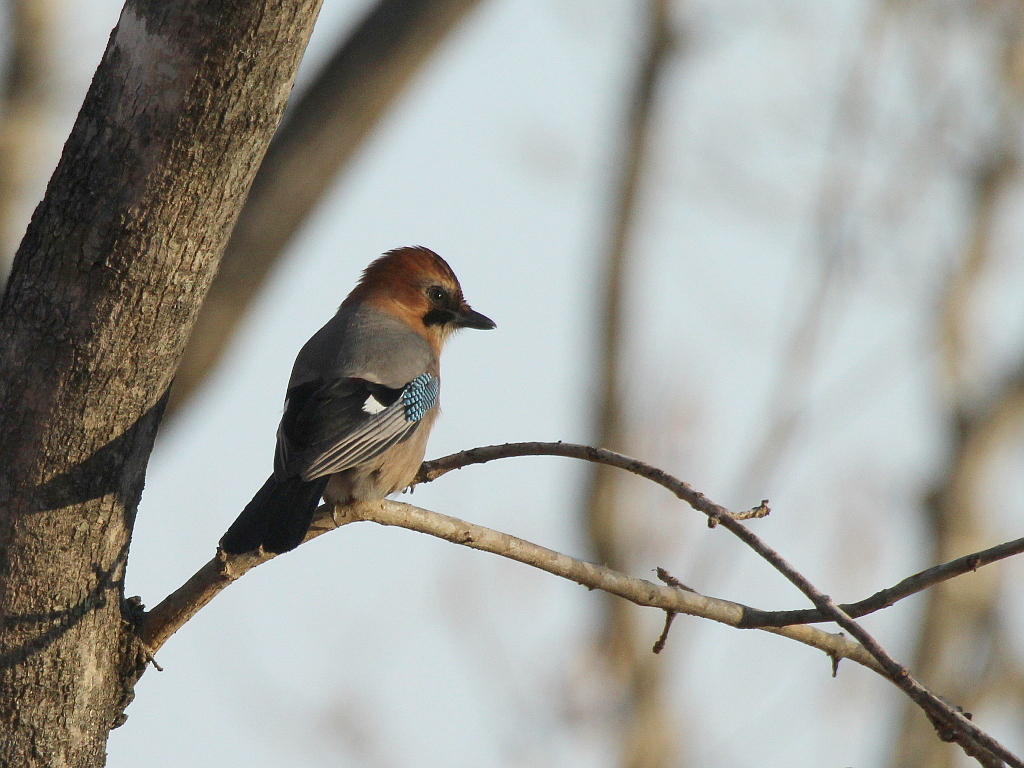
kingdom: Animalia
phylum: Chordata
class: Aves
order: Passeriformes
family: Corvidae
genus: Garrulus
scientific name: Garrulus glandarius
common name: Eurasian jay
